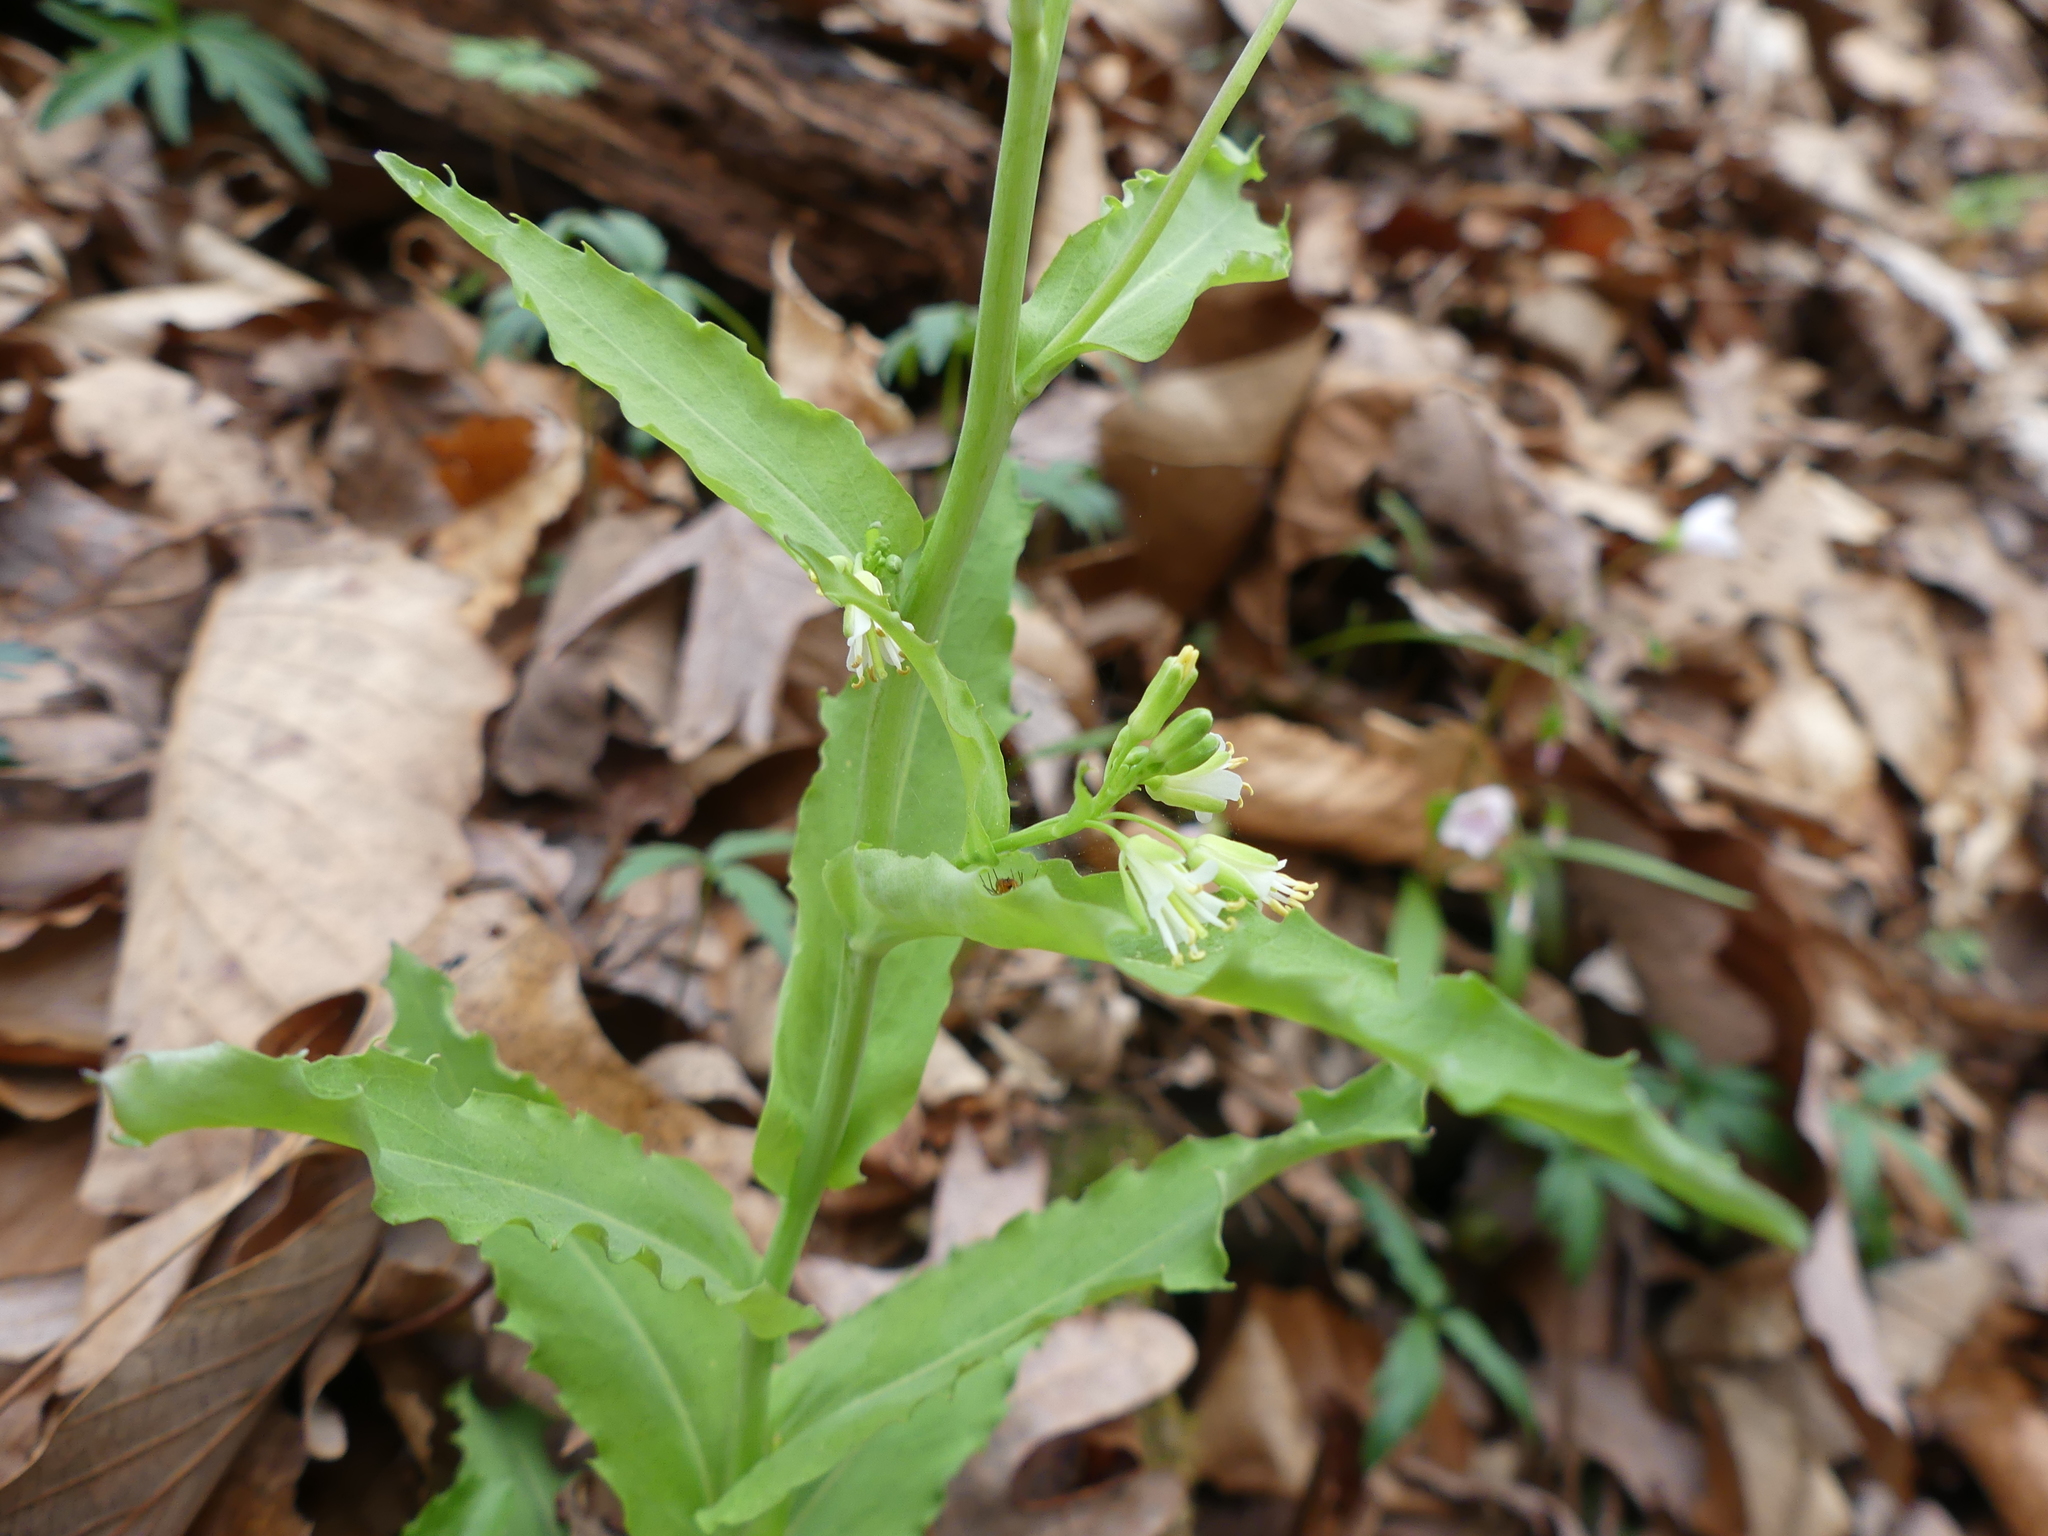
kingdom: Plantae
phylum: Tracheophyta
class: Magnoliopsida
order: Brassicales
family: Brassicaceae
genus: Borodinia
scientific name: Borodinia laevigata
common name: Smooth rockcress
